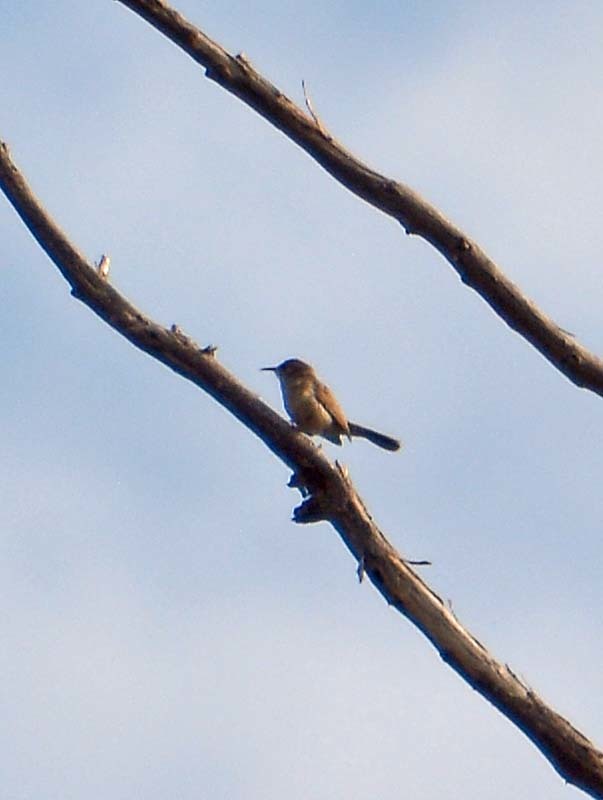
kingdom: Animalia
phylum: Chordata
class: Aves
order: Passeriformes
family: Troglodytidae
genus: Thryomanes
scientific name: Thryomanes bewickii
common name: Bewick's wren
